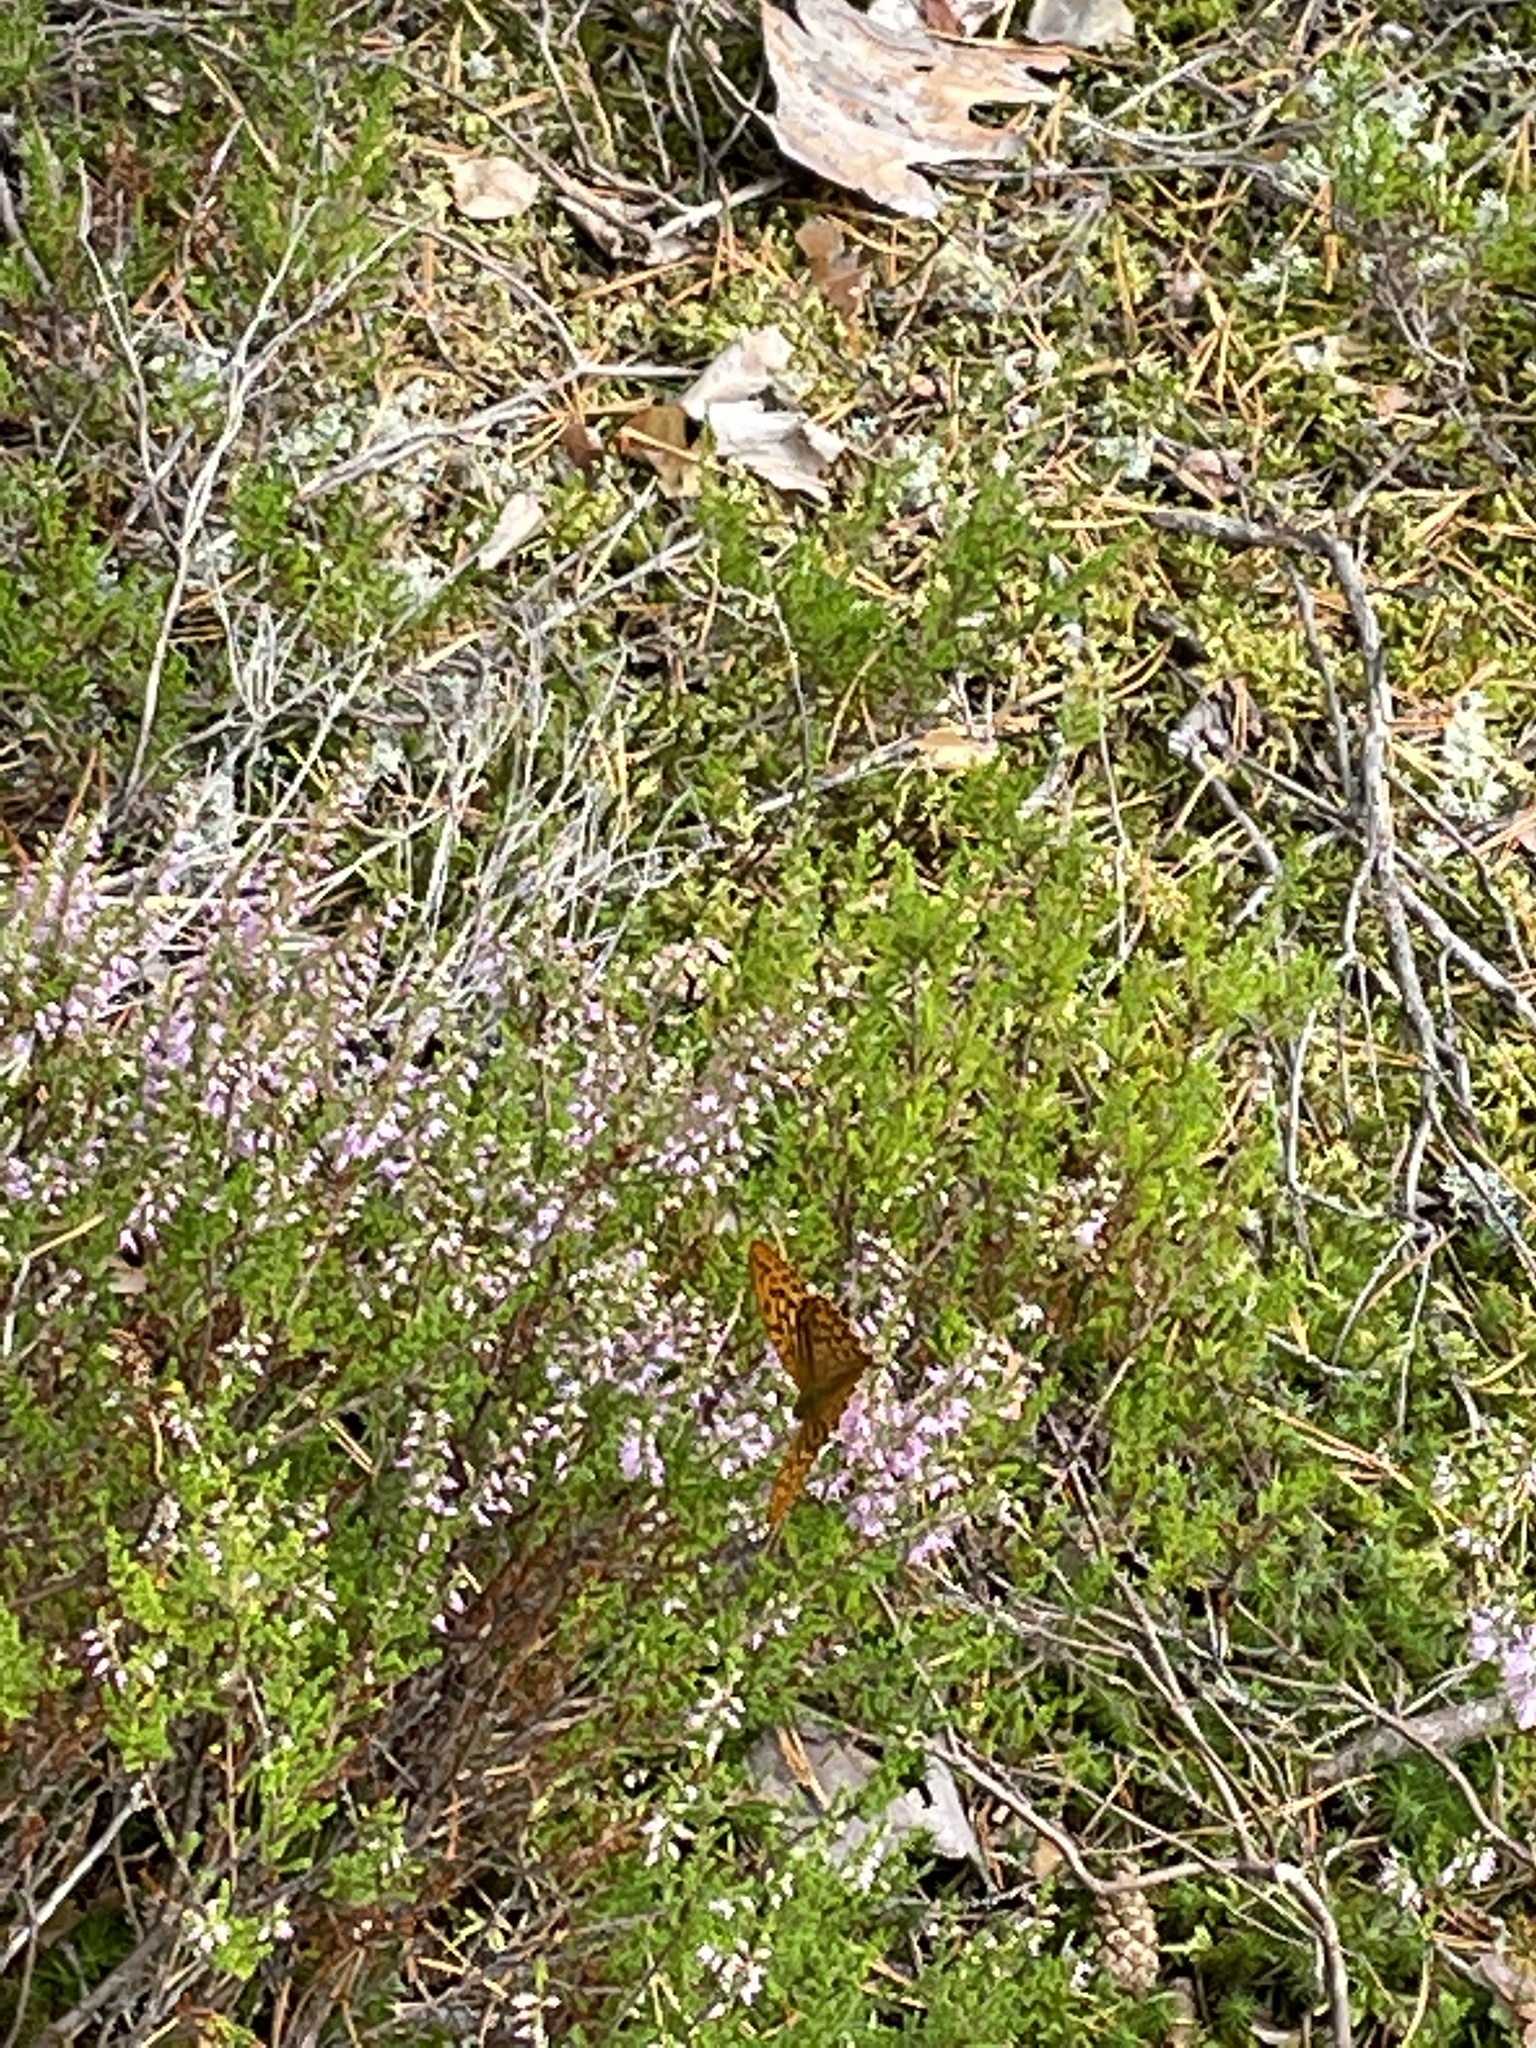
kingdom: Animalia
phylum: Arthropoda
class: Insecta
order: Lepidoptera
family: Nymphalidae
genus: Argynnis
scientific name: Argynnis paphia
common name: Silver-washed fritillary
